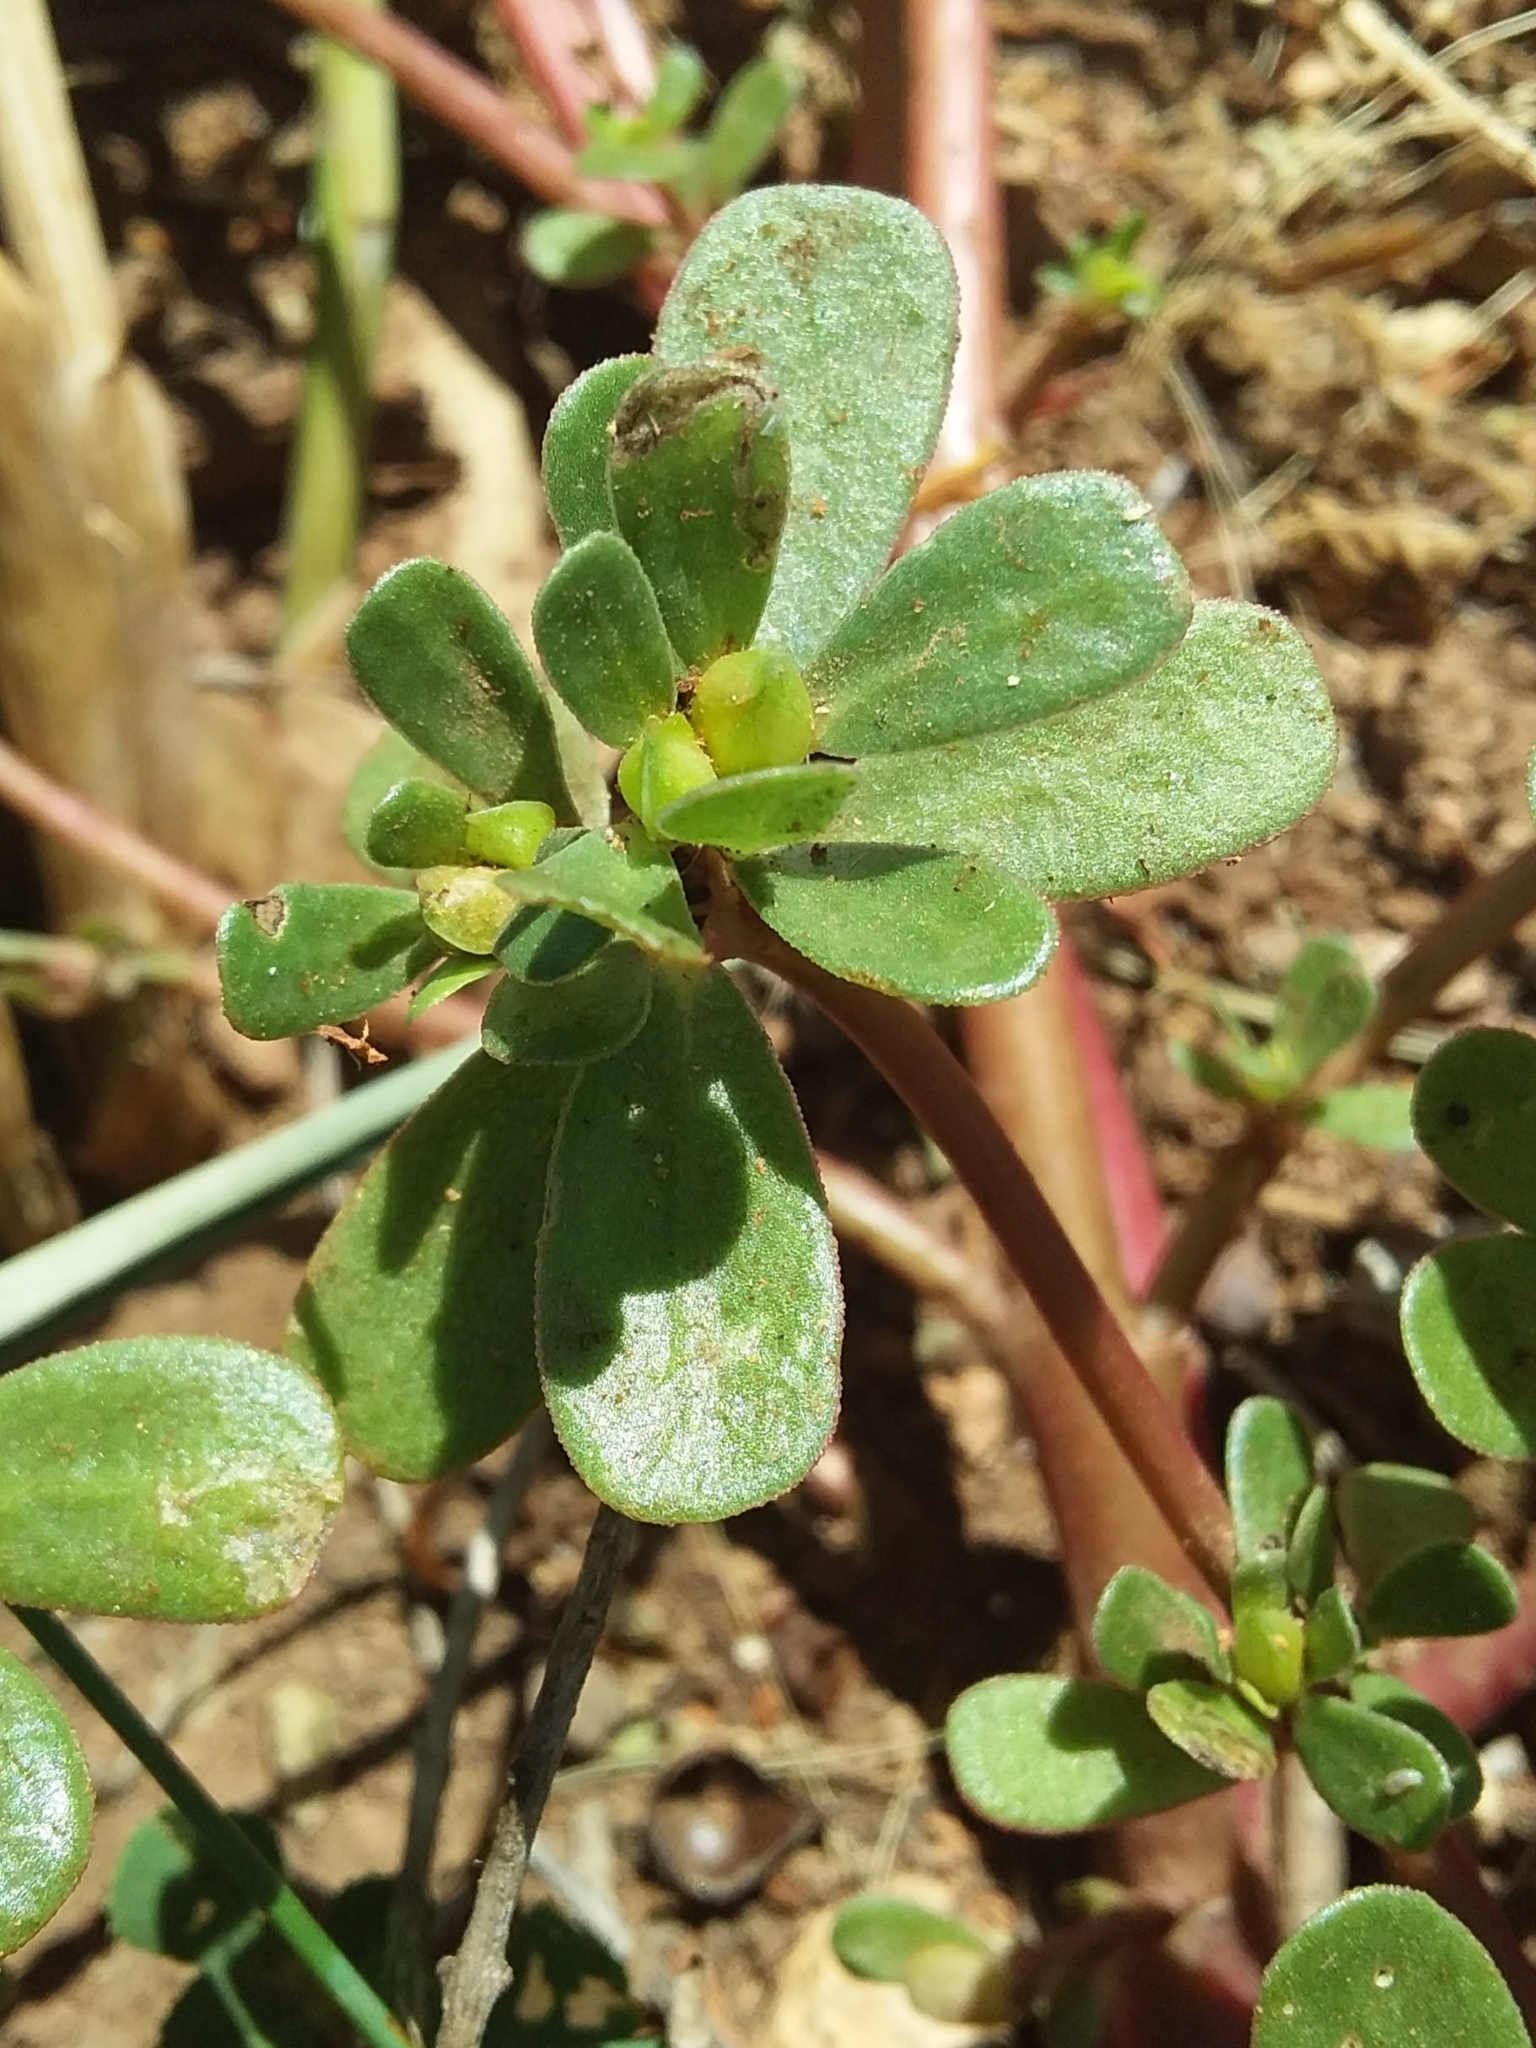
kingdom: Plantae
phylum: Tracheophyta
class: Magnoliopsida
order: Caryophyllales
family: Portulacaceae
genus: Portulaca
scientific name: Portulaca oleracea
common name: Common purslane
